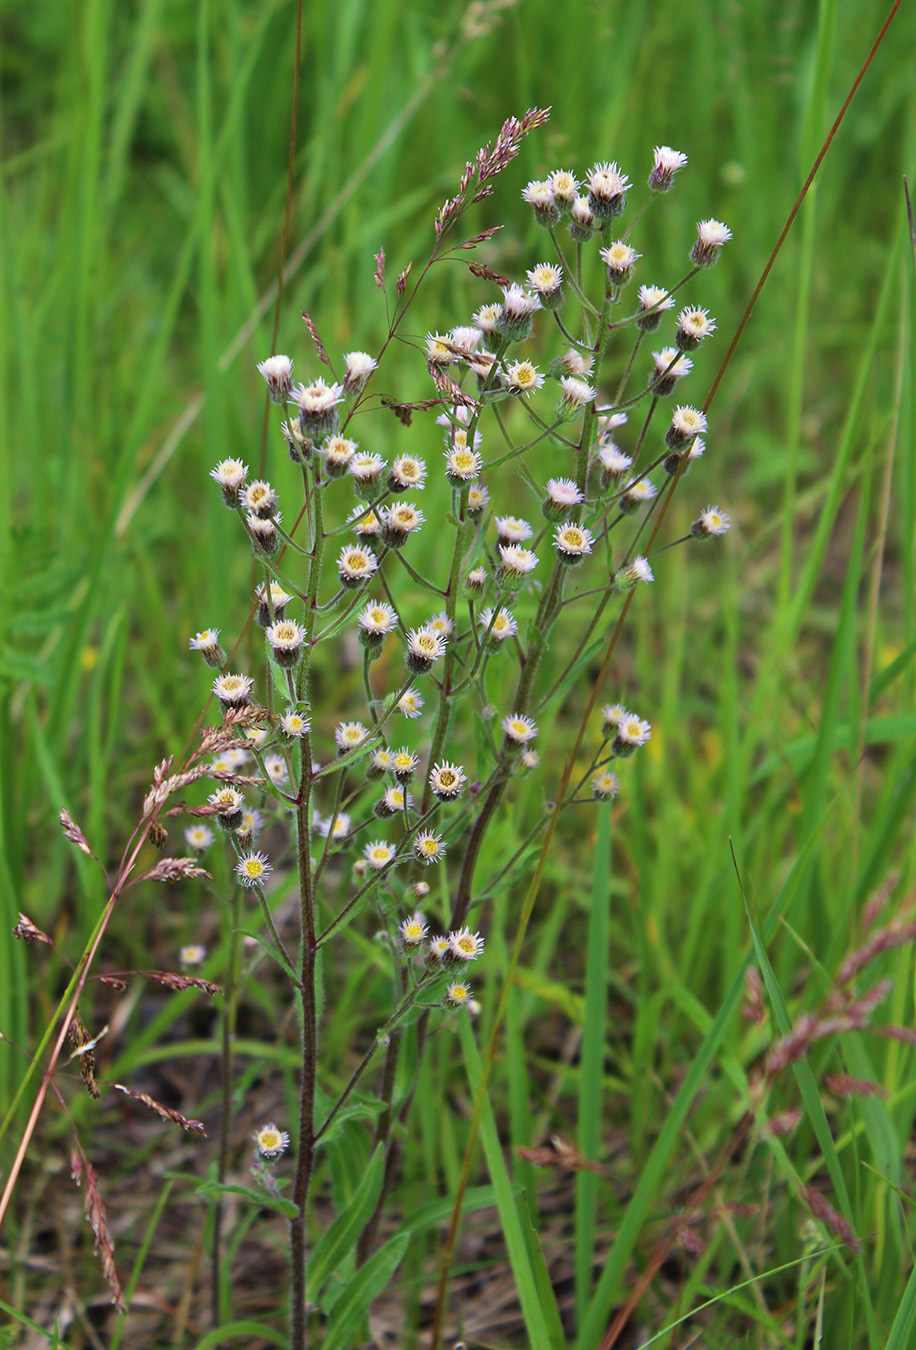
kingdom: Plantae
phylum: Tracheophyta
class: Magnoliopsida
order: Asterales
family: Asteraceae
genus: Erigeron
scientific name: Erigeron acris
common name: Blue fleabane
